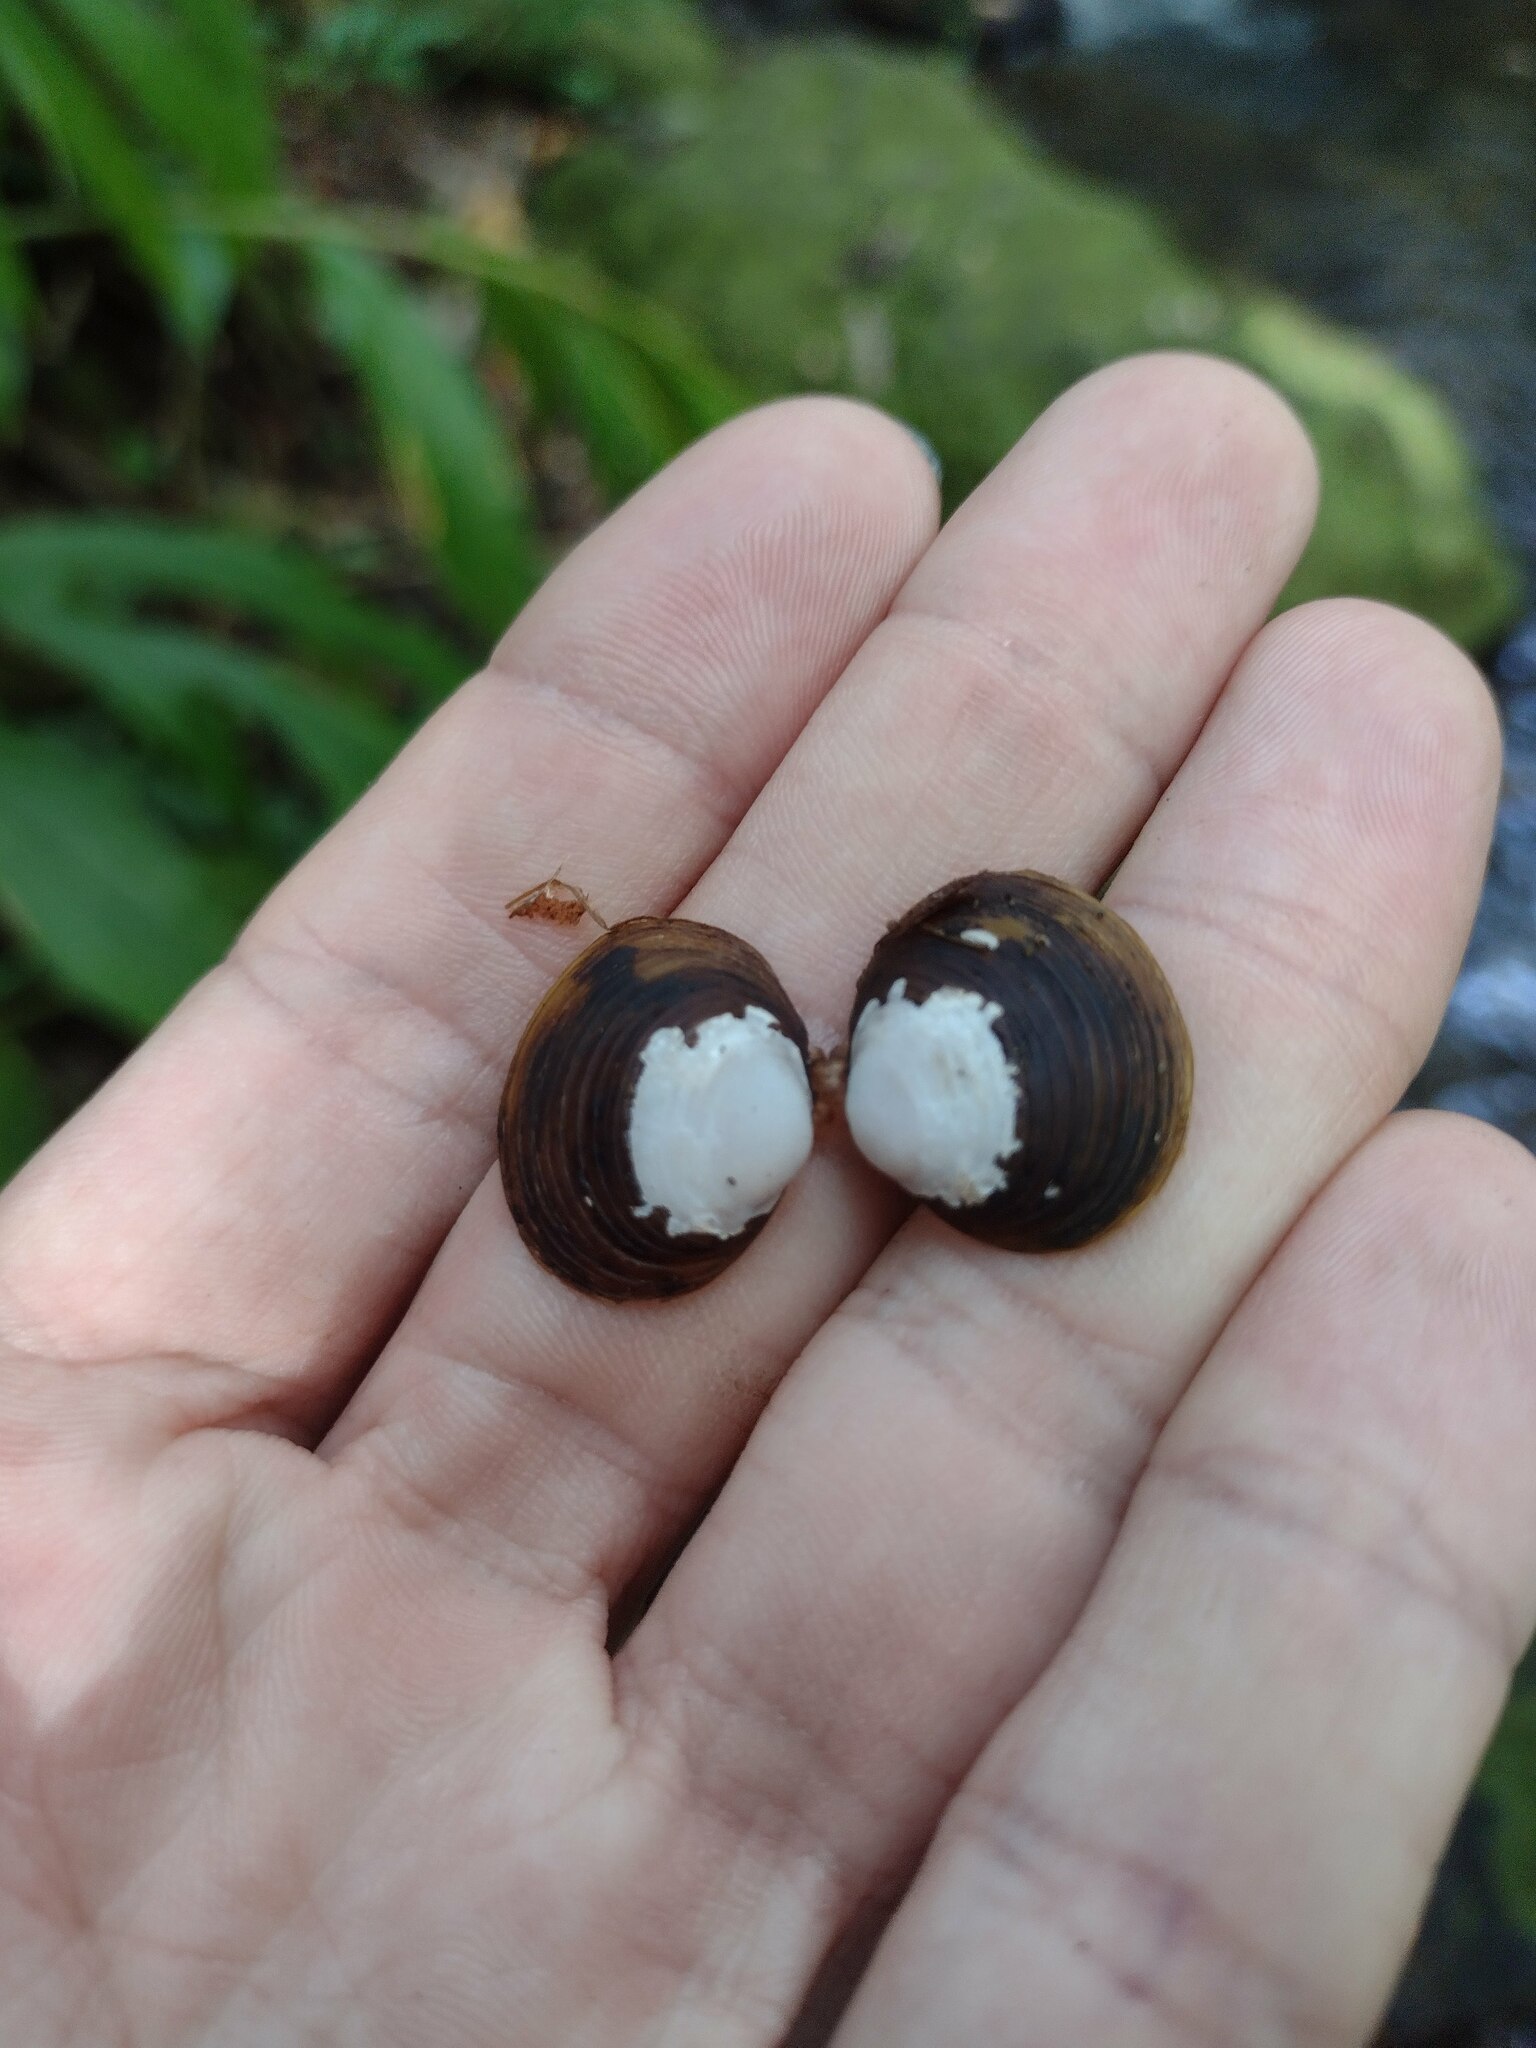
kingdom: Animalia
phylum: Mollusca
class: Bivalvia
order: Venerida
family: Cyrenidae
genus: Corbicula
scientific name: Corbicula fluminea
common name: Asian clam
